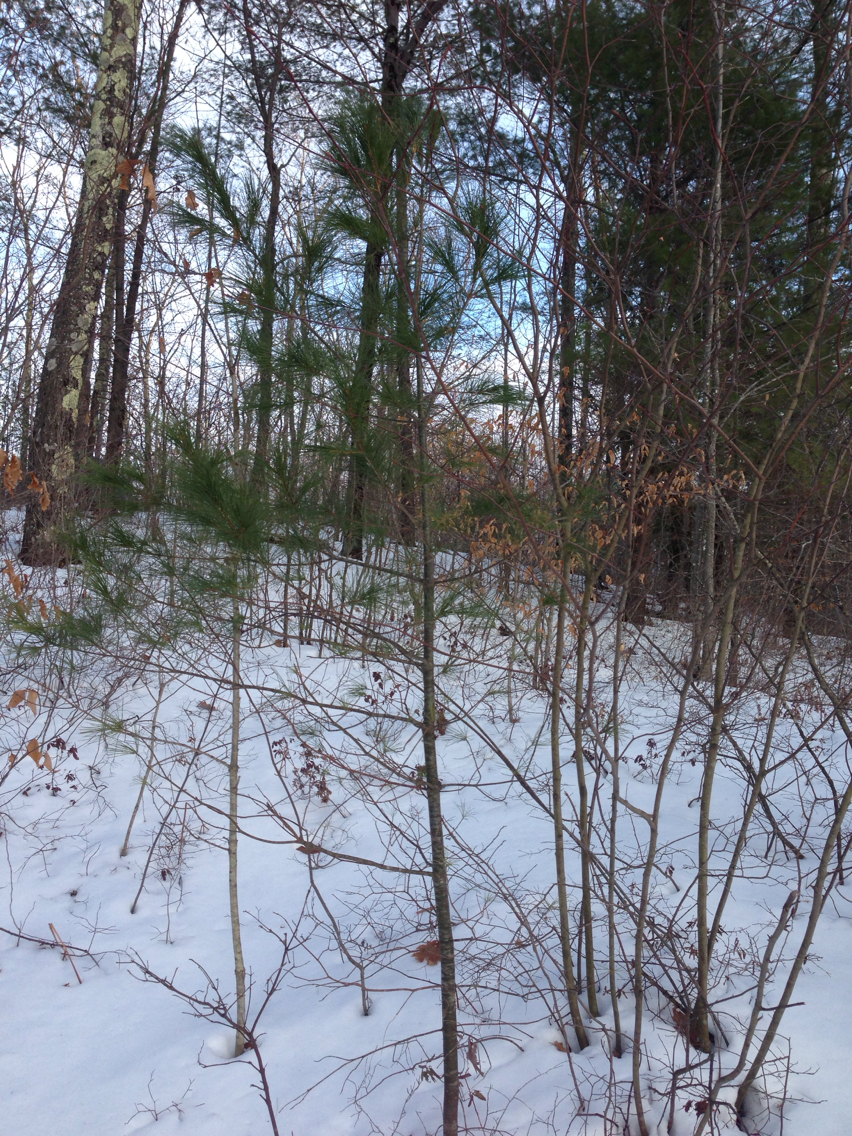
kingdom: Plantae
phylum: Tracheophyta
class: Pinopsida
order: Pinales
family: Pinaceae
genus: Pinus
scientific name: Pinus strobus
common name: Weymouth pine
